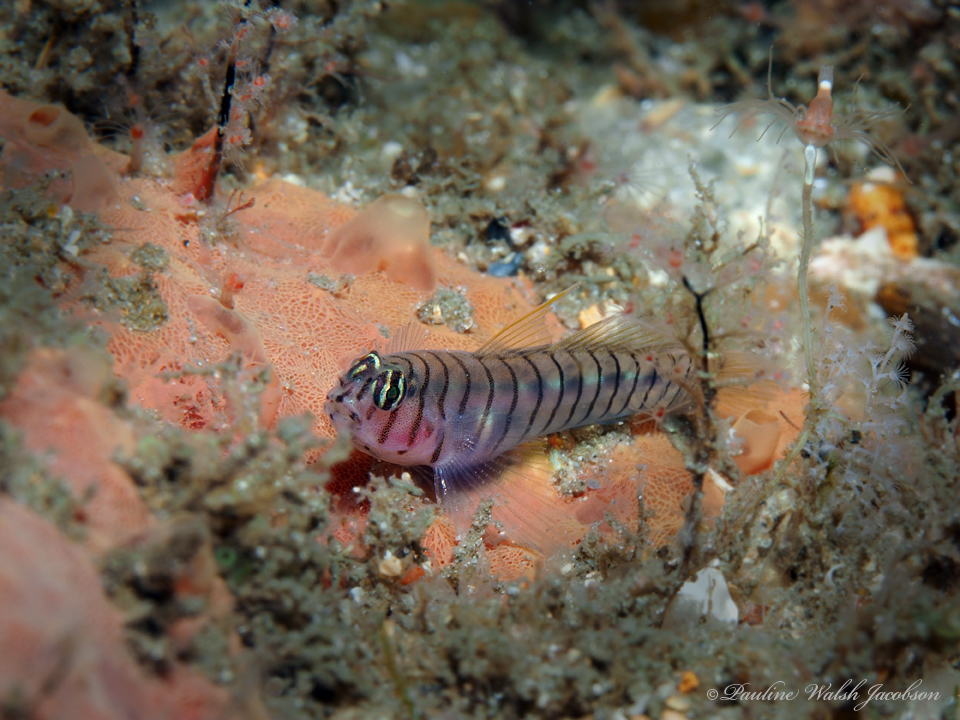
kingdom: Animalia
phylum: Chordata
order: Perciformes
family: Gobiidae
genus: Tigrigobius
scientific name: Tigrigobius macrodon
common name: Tiger goby
